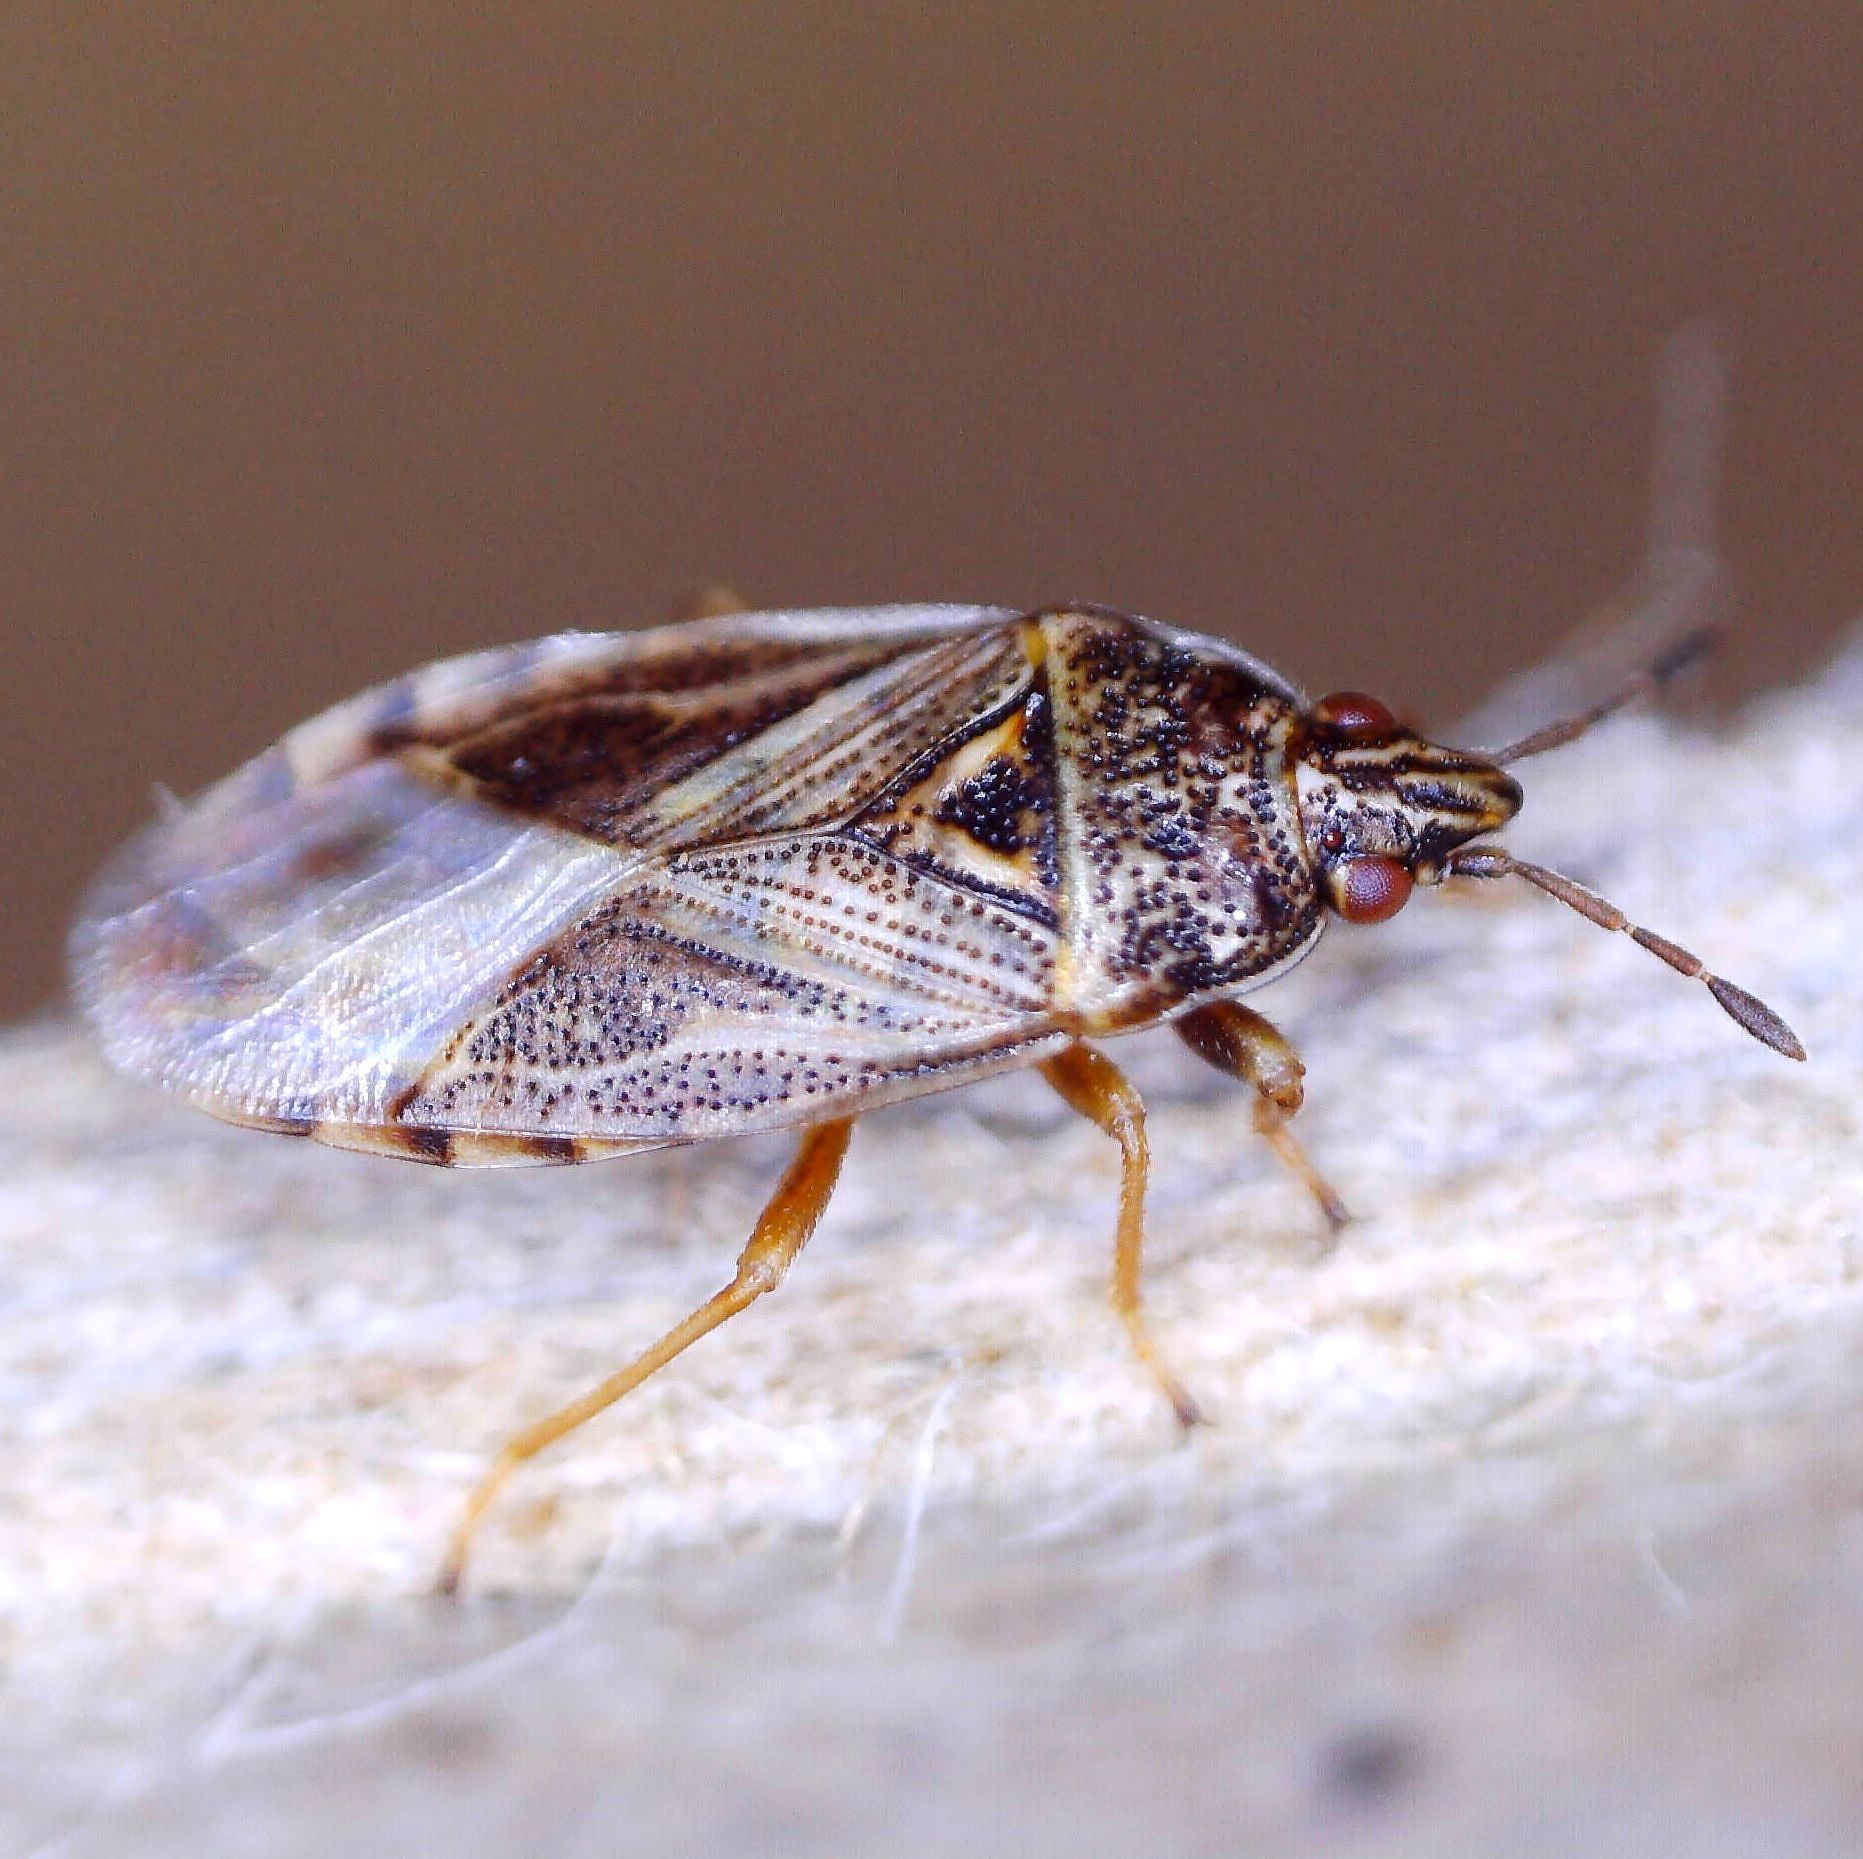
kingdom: Animalia
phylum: Arthropoda
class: Insecta
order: Hemiptera
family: Artheneidae
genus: Chilacis
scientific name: Chilacis typhae
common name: Cattail bug
